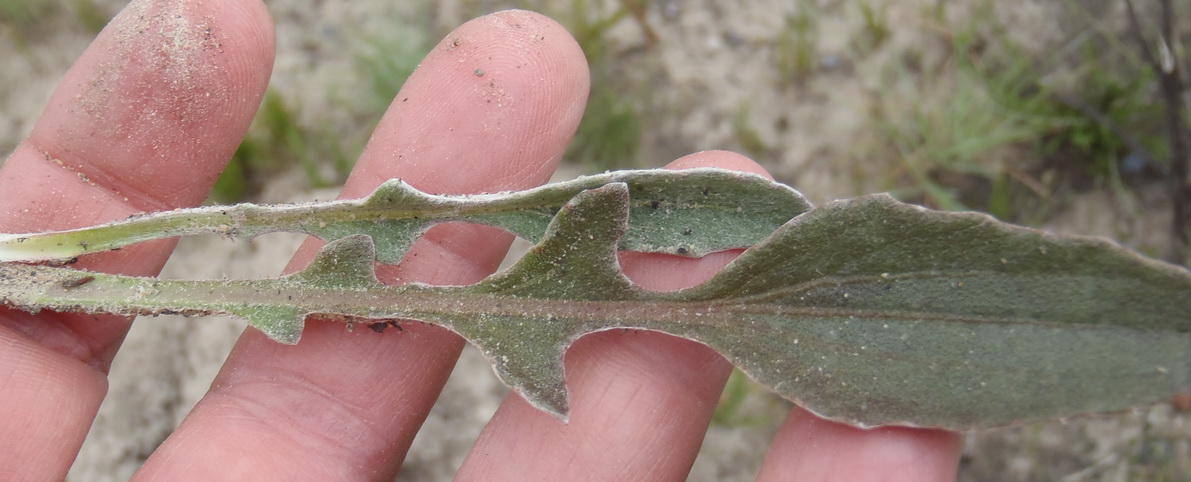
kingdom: Plantae
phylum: Tracheophyta
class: Magnoliopsida
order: Asterales
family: Asteraceae
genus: Arctotis
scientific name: Arctotis acaulis
